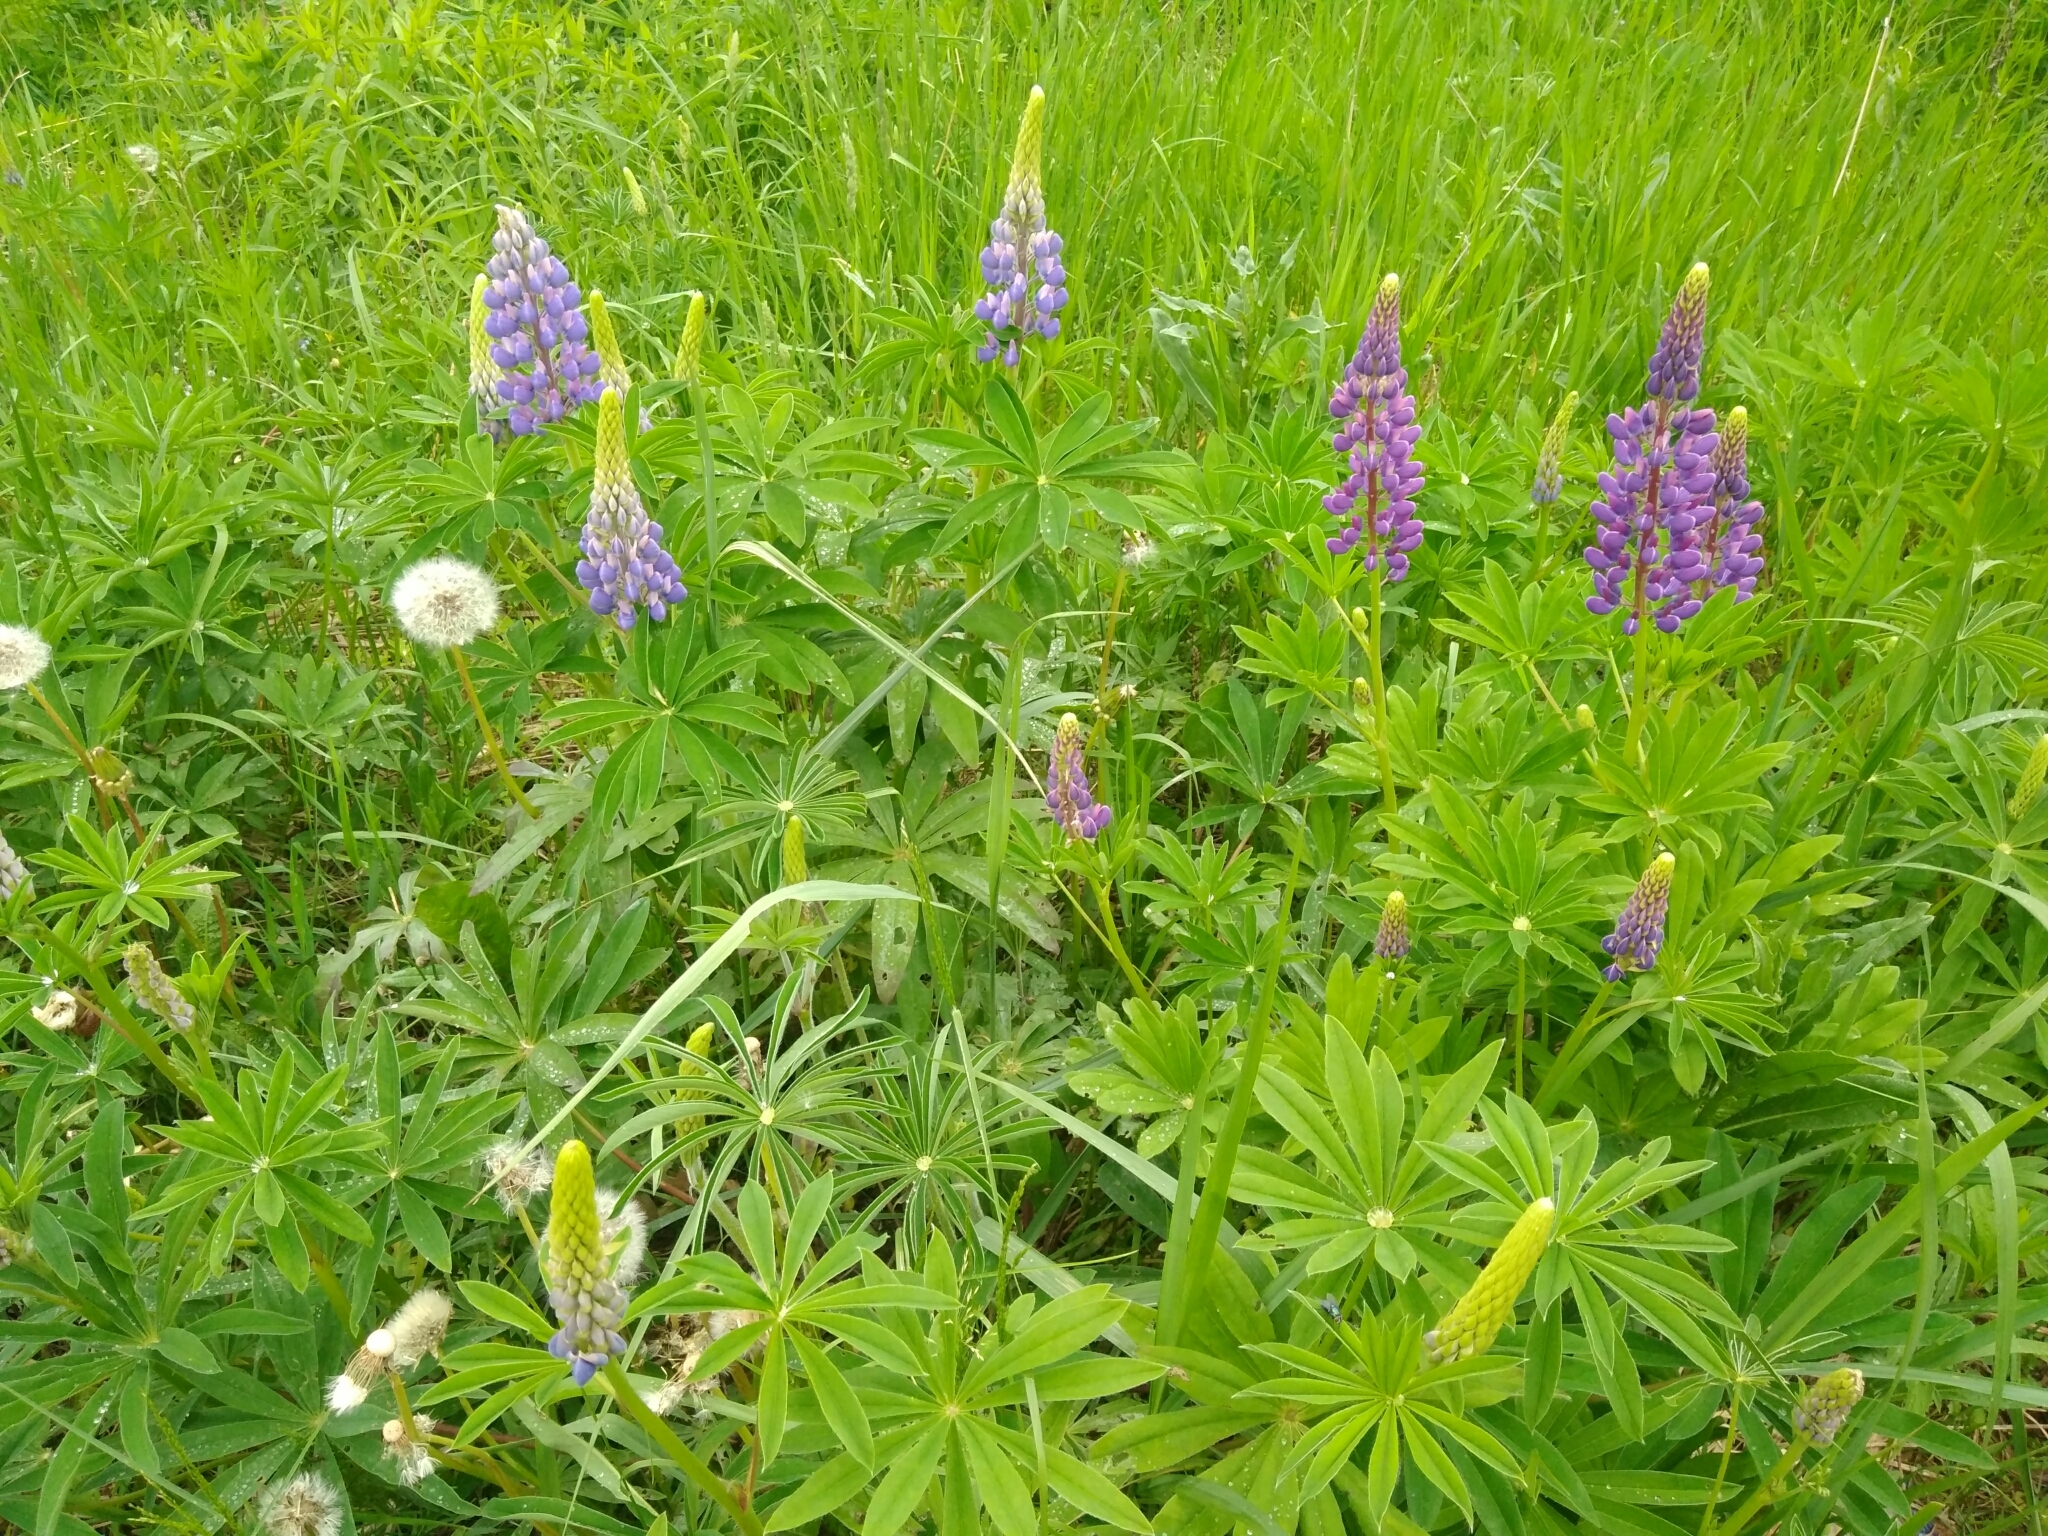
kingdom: Plantae
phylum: Tracheophyta
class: Magnoliopsida
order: Fabales
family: Fabaceae
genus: Lupinus
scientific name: Lupinus polyphyllus
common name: Garden lupin
